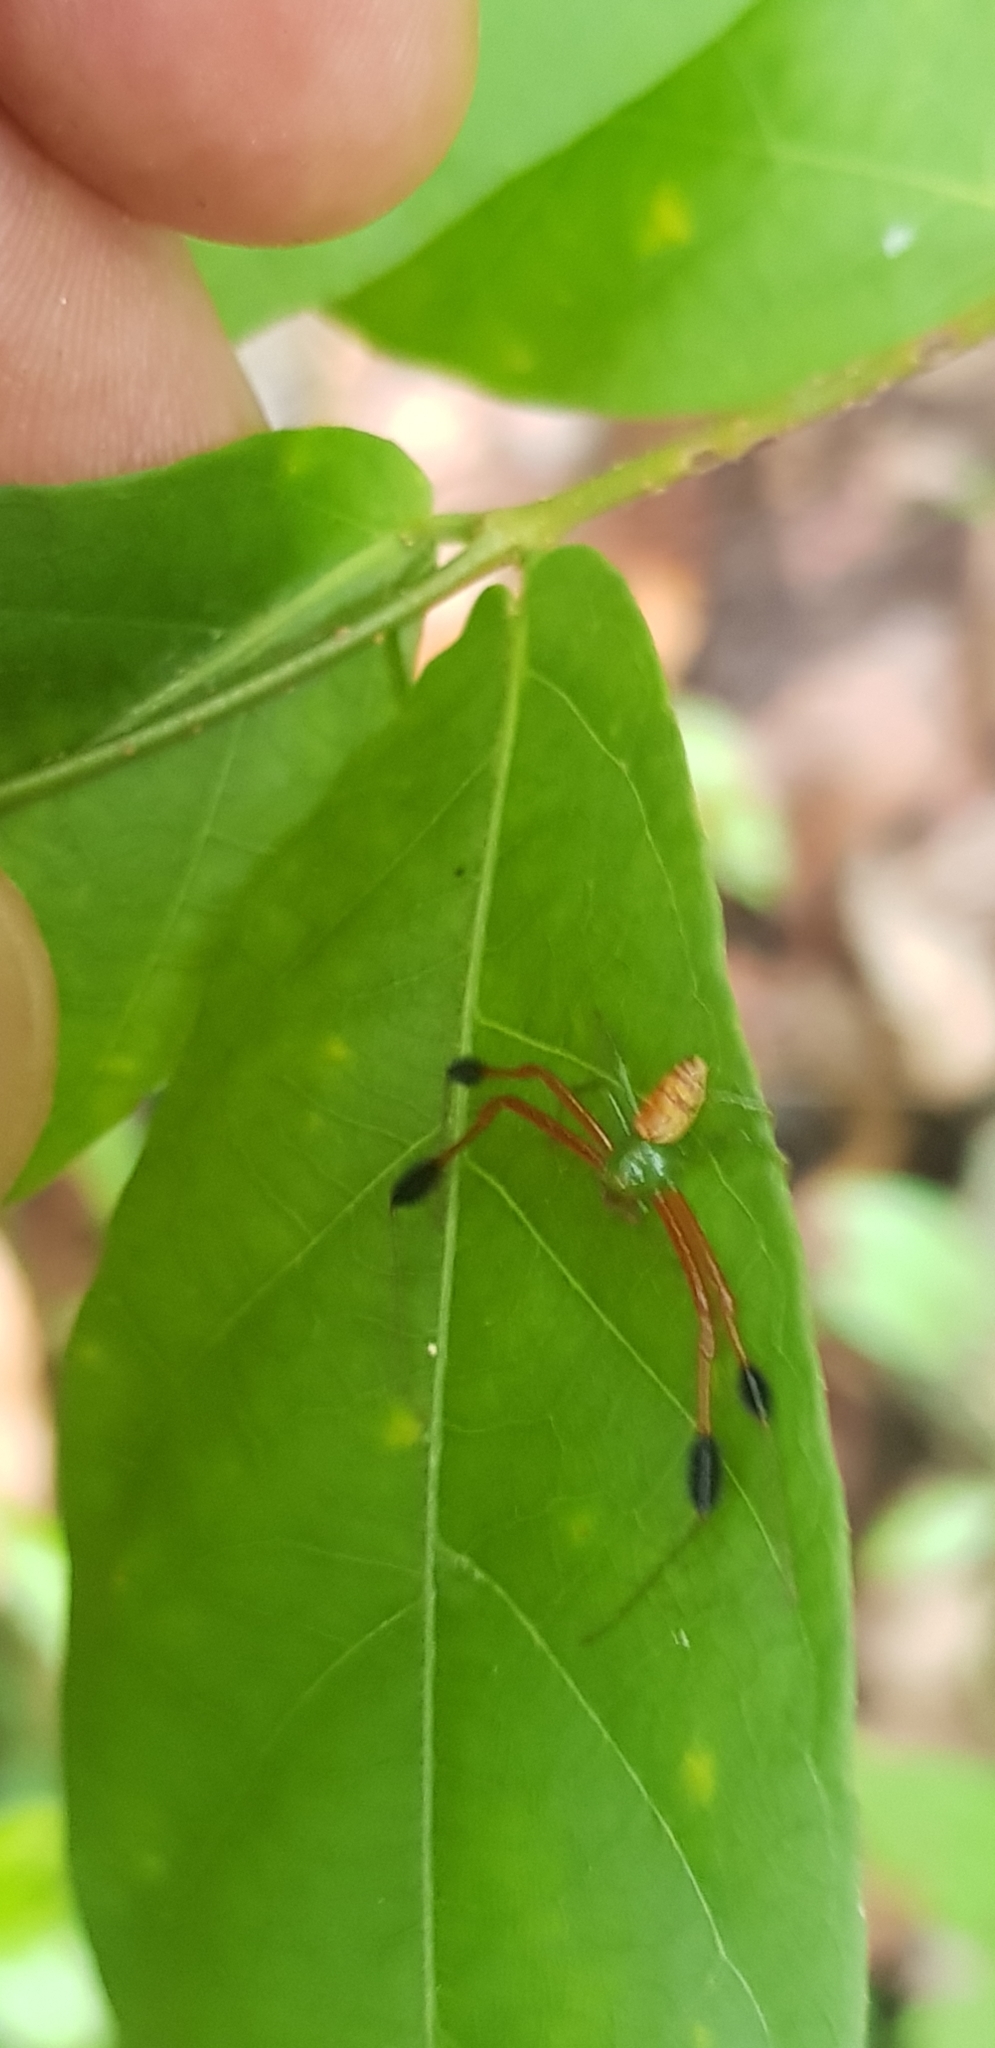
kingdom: Animalia
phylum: Arthropoda
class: Arachnida
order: Araneae
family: Thomisidae
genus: Parasynema
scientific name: Parasynema cirripes
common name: Crab spiders
